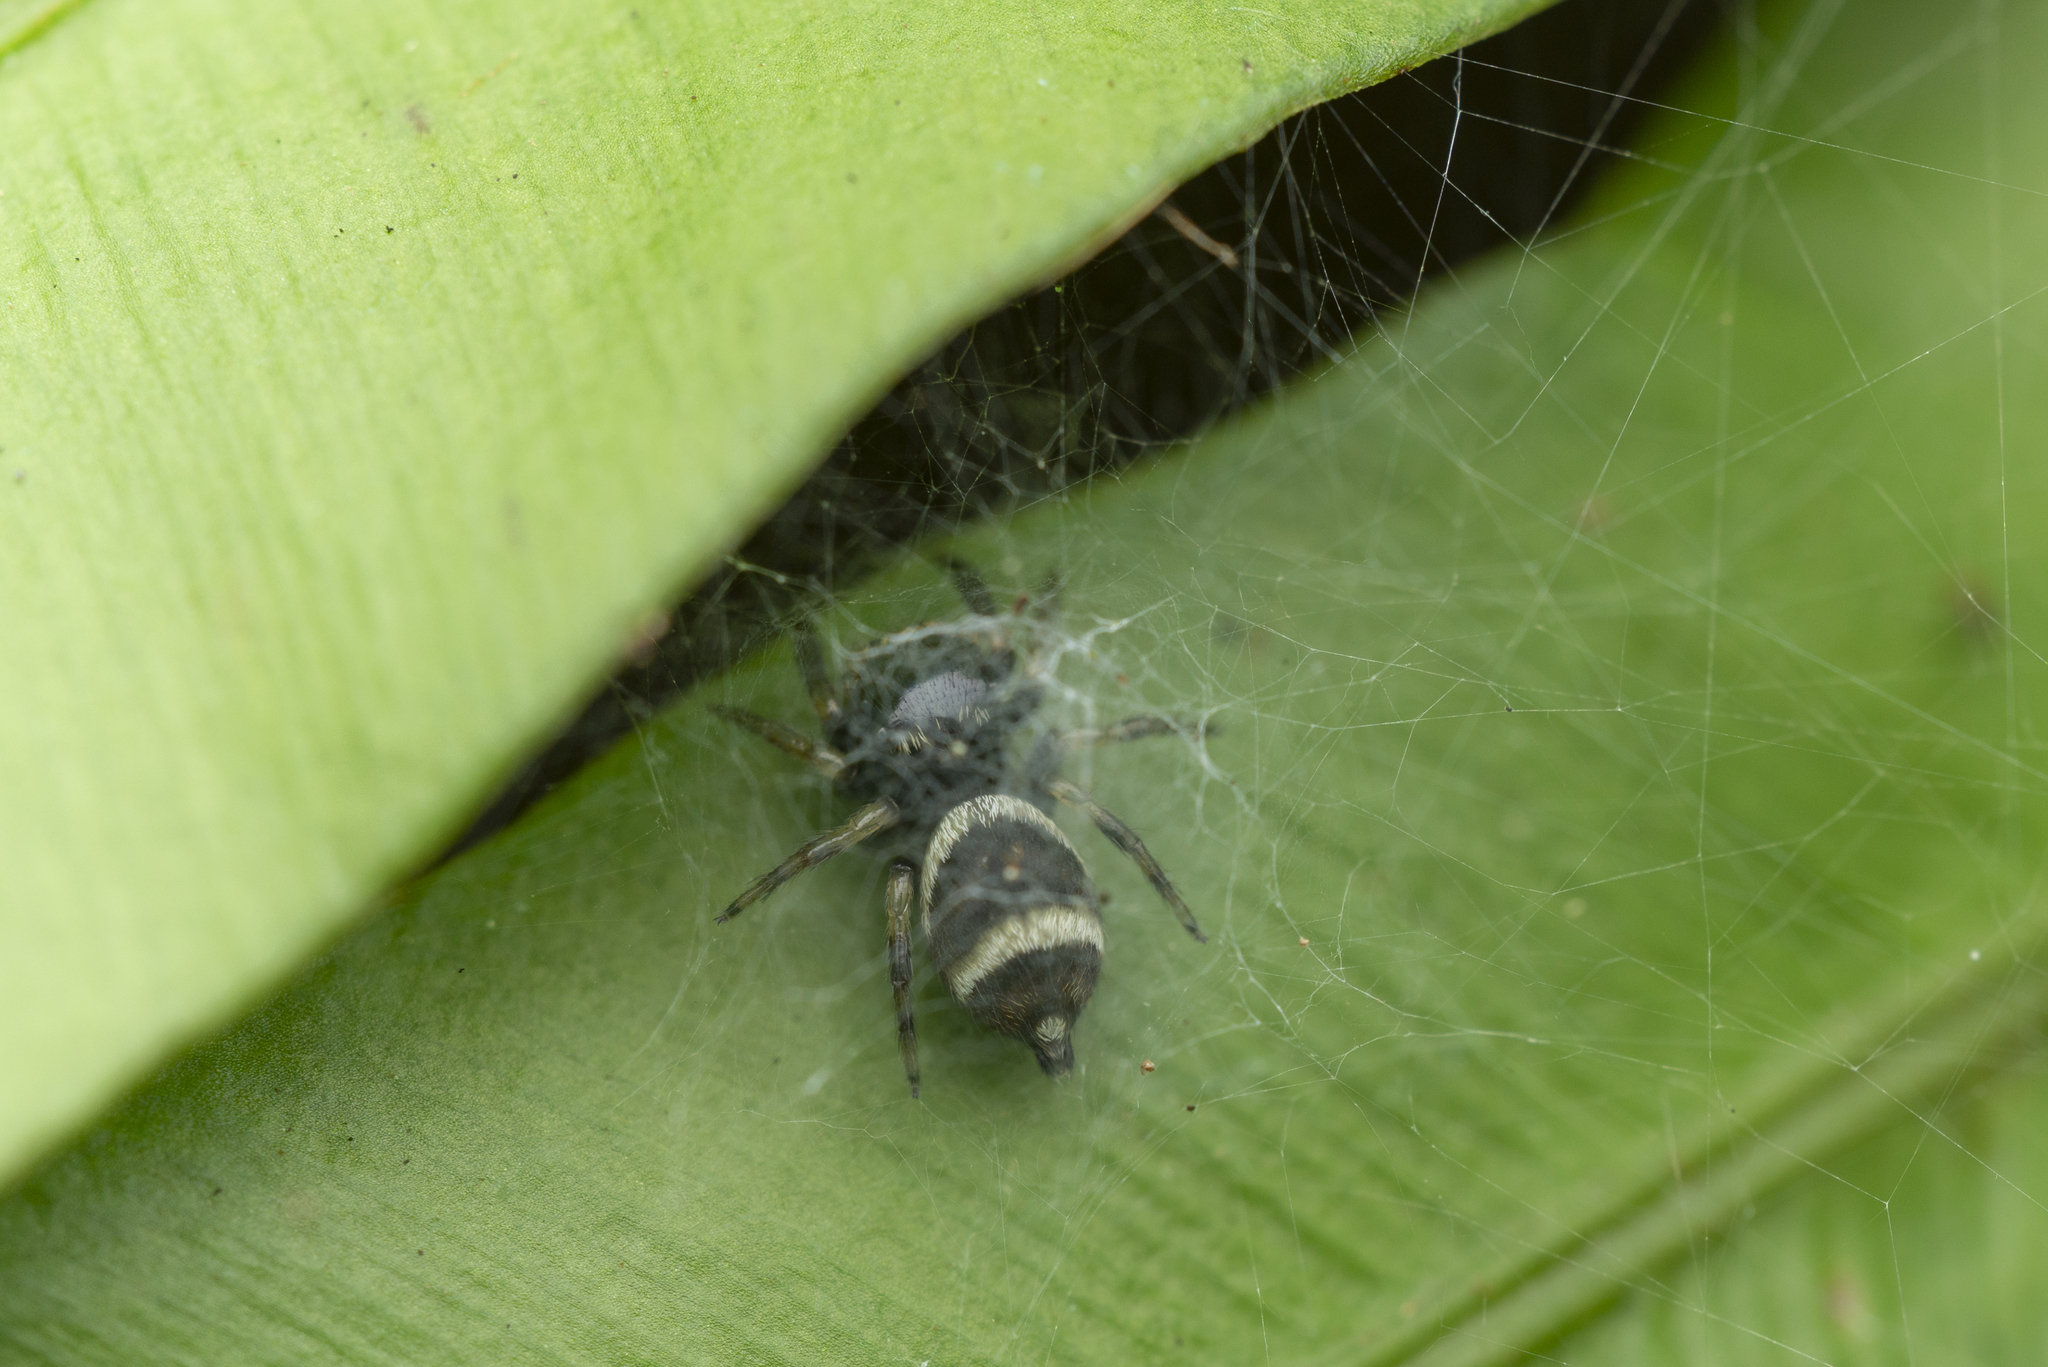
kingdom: Animalia
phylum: Arthropoda
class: Arachnida
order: Araneae
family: Salticidae
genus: Ptocasius
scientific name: Ptocasius strupifer
